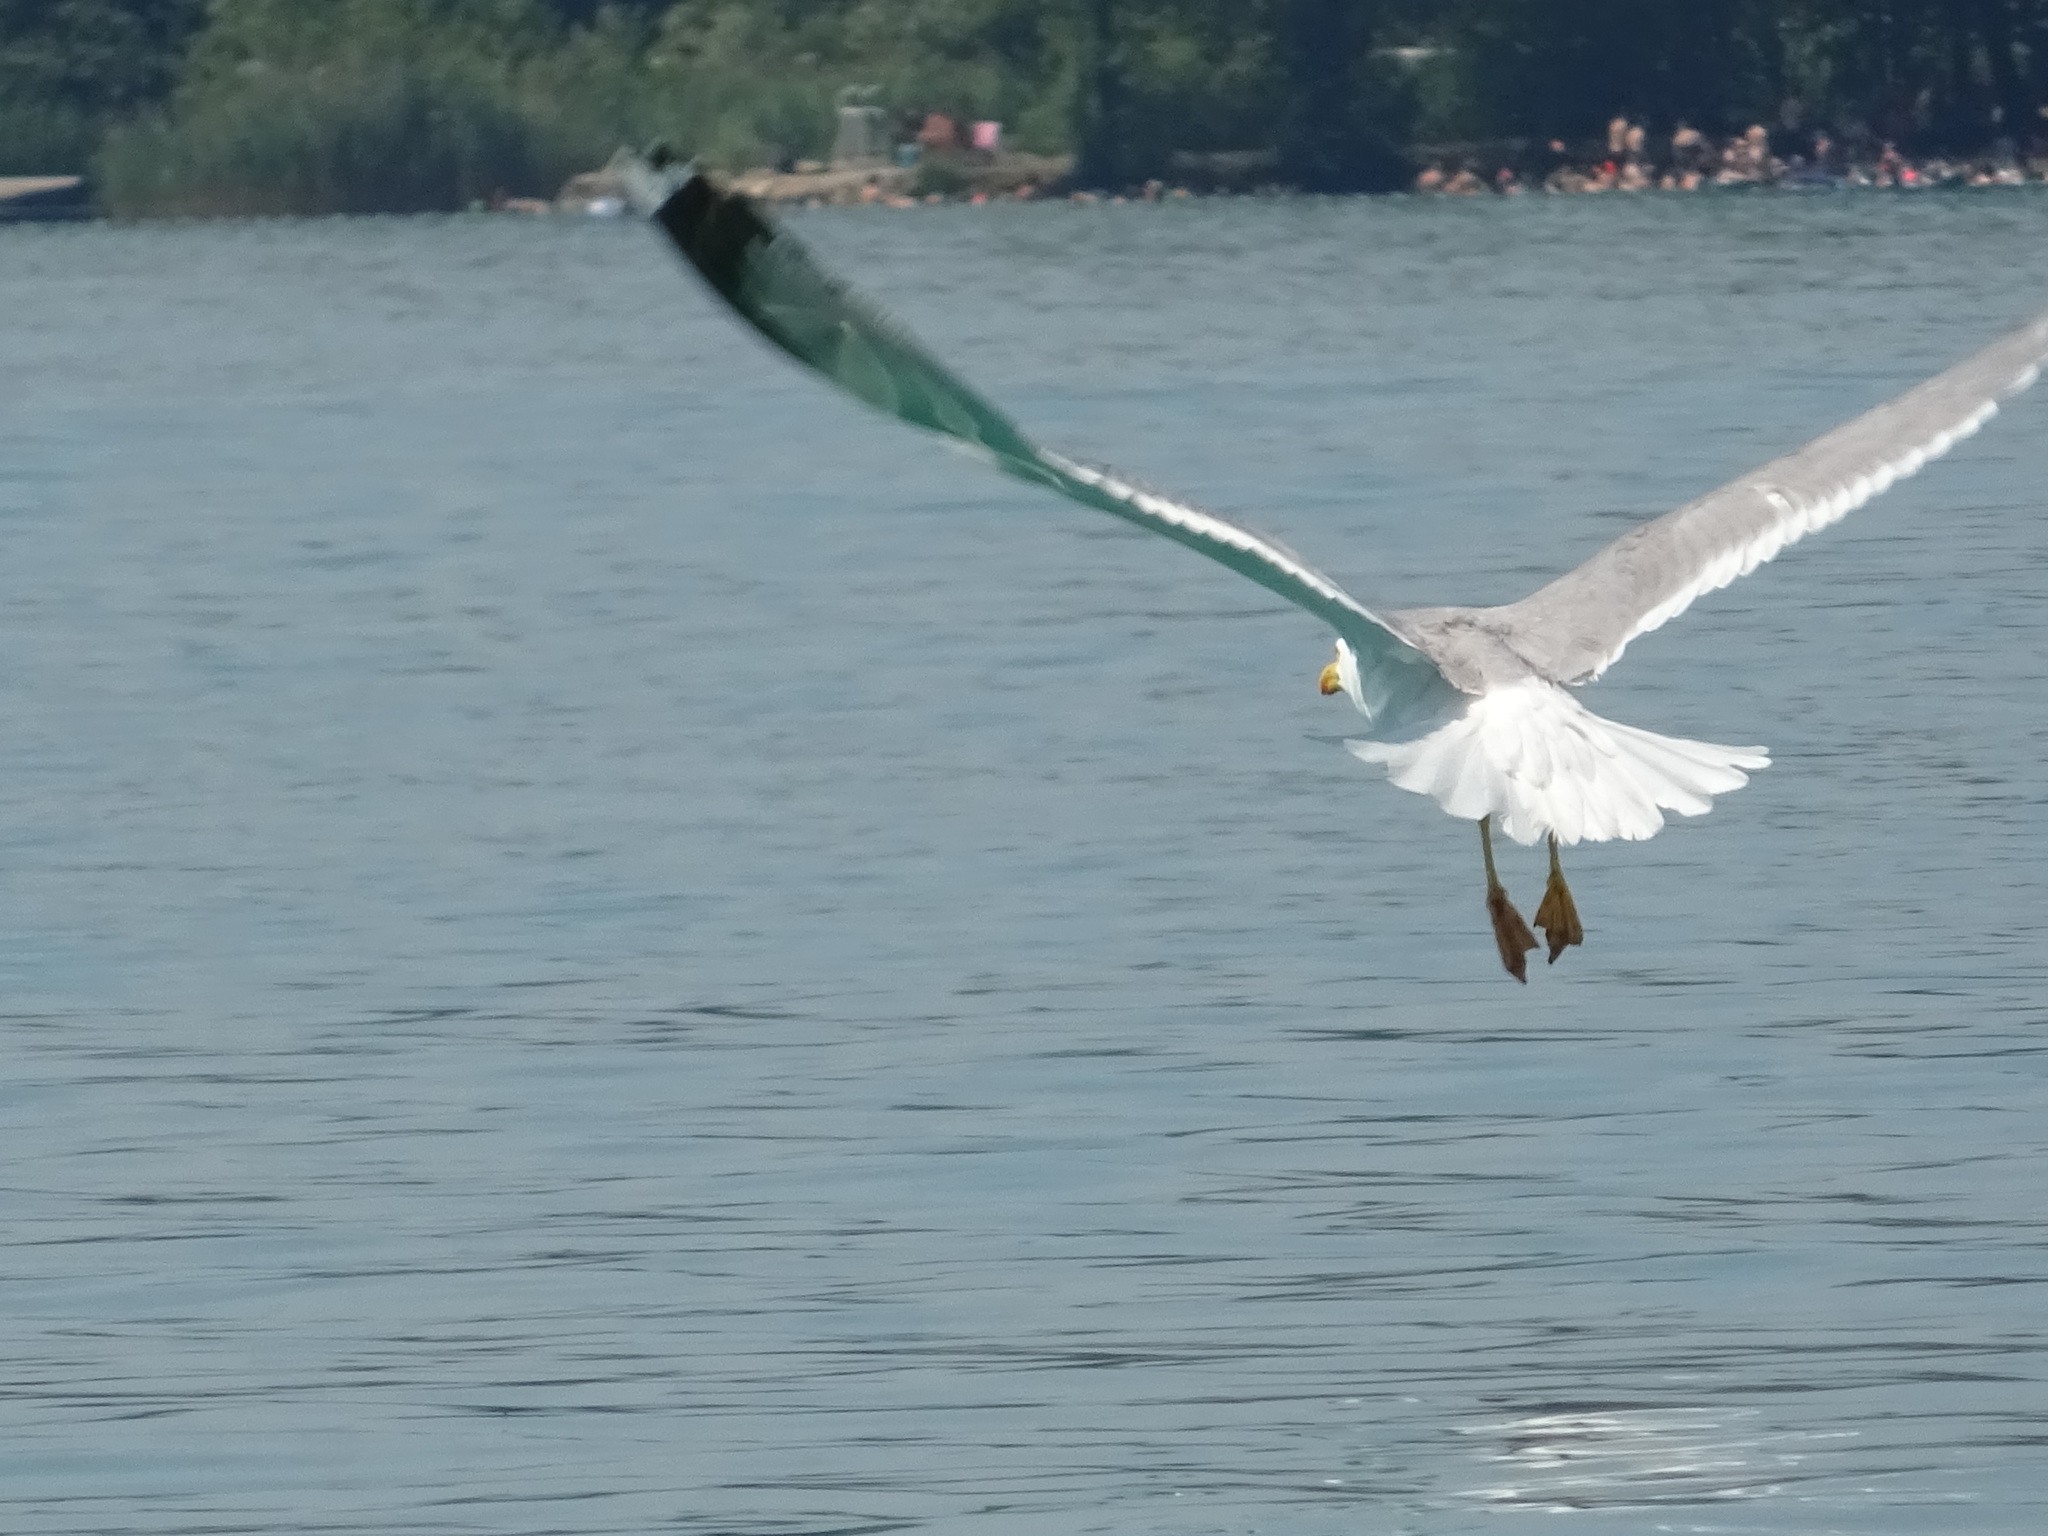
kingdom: Animalia
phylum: Chordata
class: Aves
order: Charadriiformes
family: Laridae
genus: Larus
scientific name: Larus michahellis
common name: Yellow-legged gull
